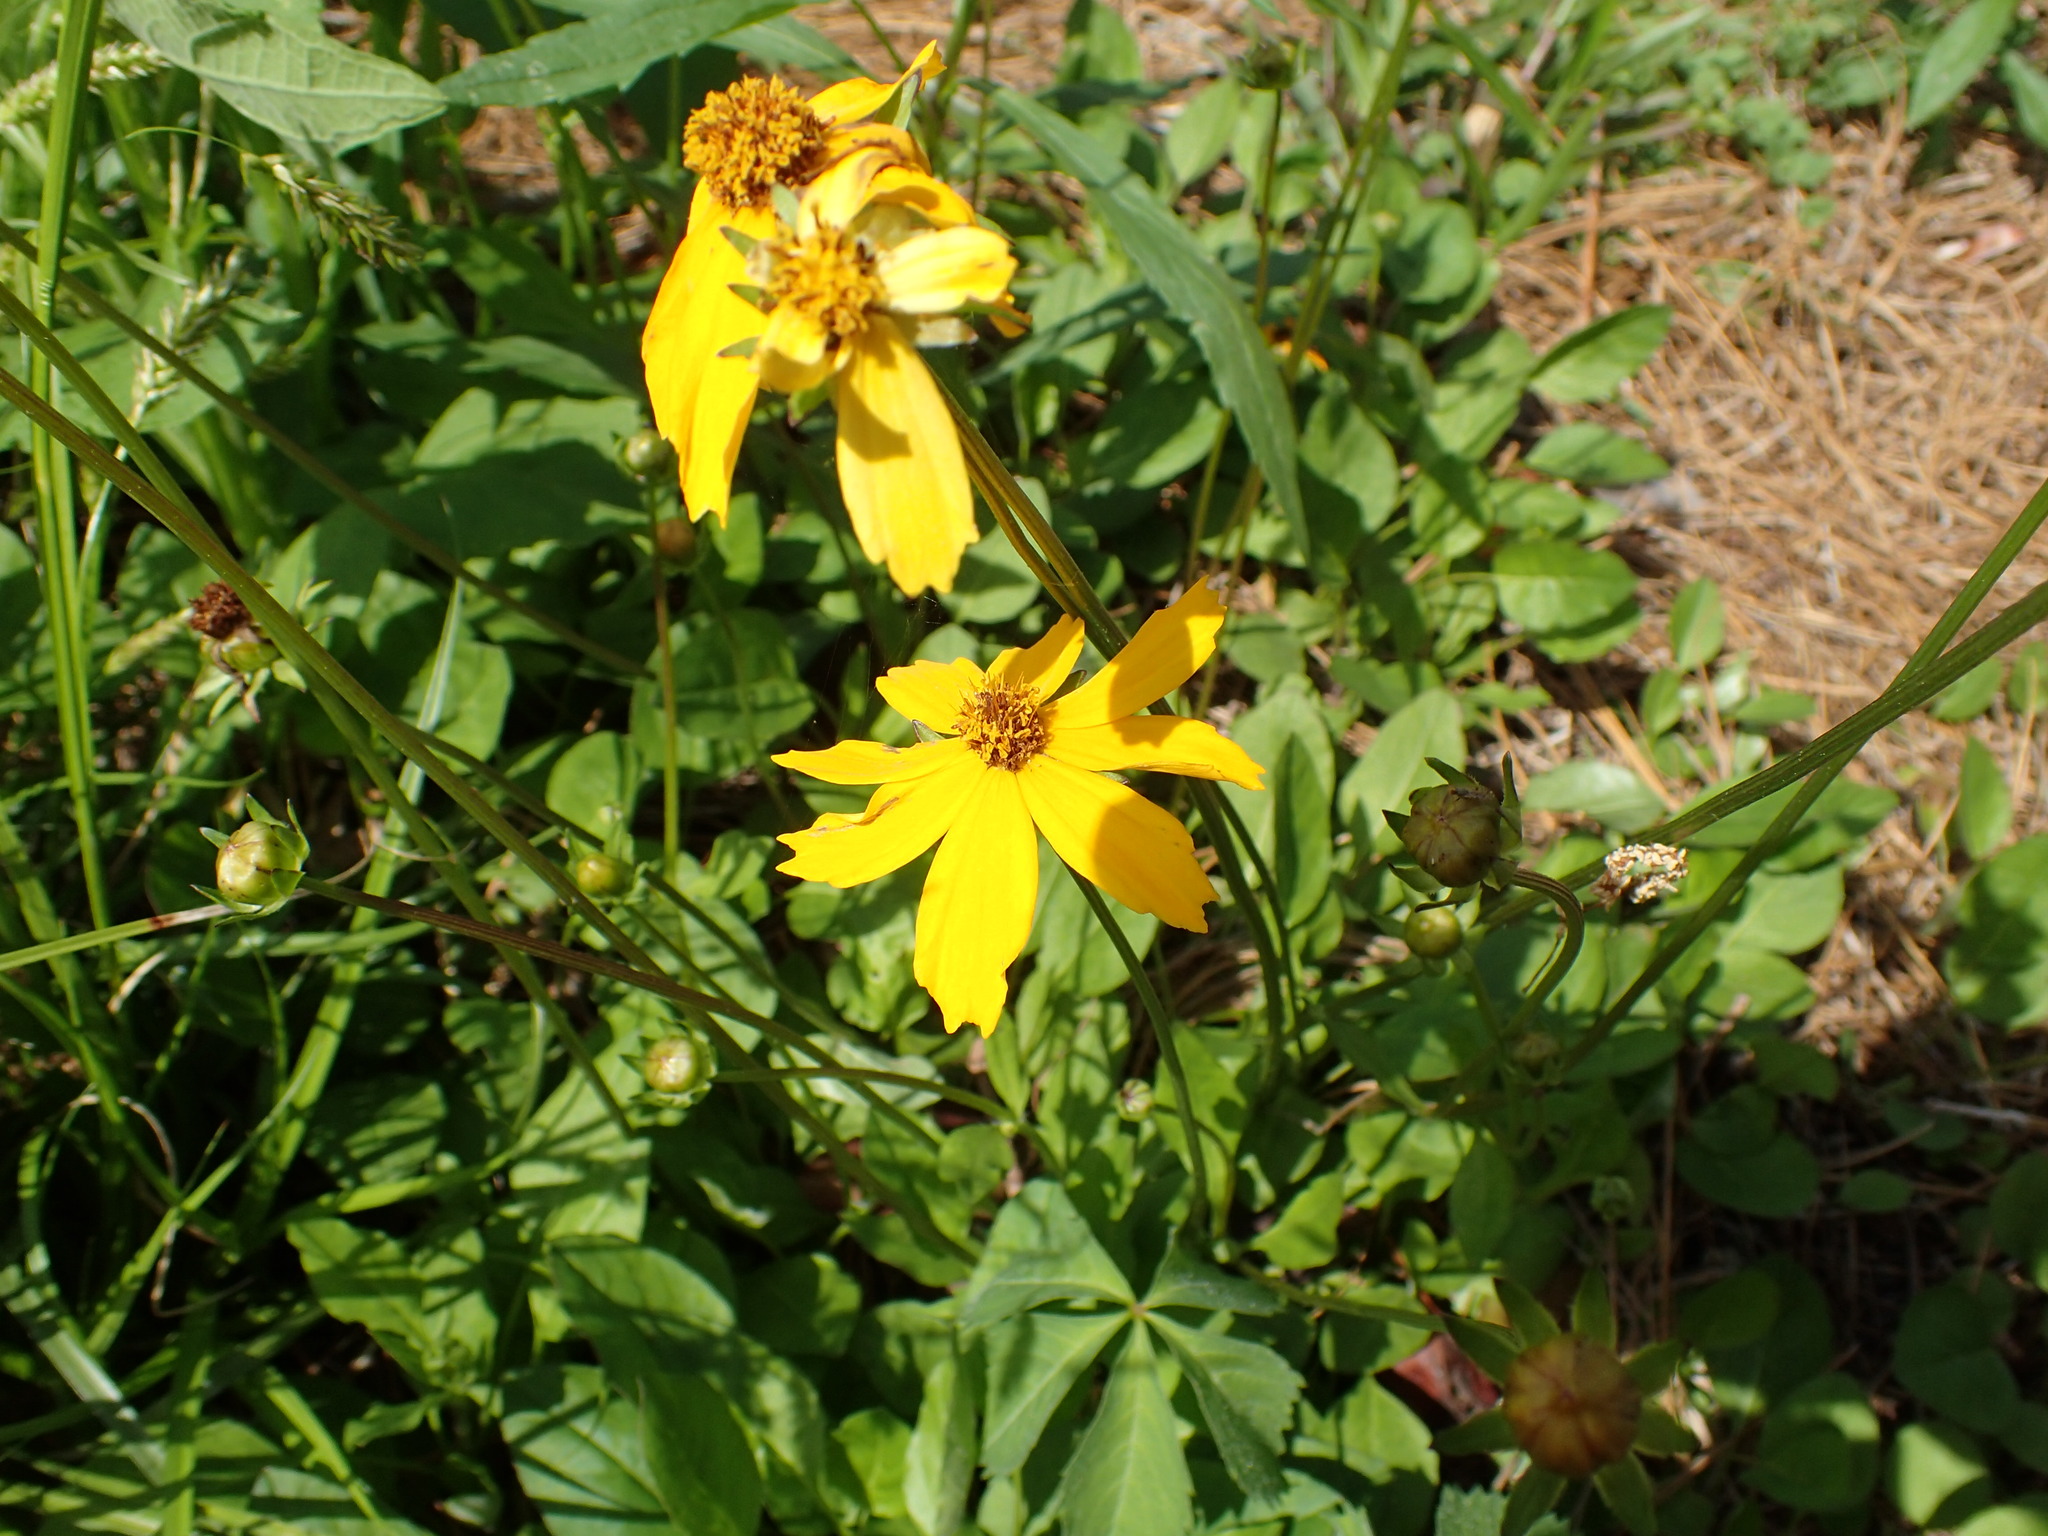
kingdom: Plantae
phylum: Tracheophyta
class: Magnoliopsida
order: Asterales
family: Asteraceae
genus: Coreopsis
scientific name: Coreopsis auriculata
